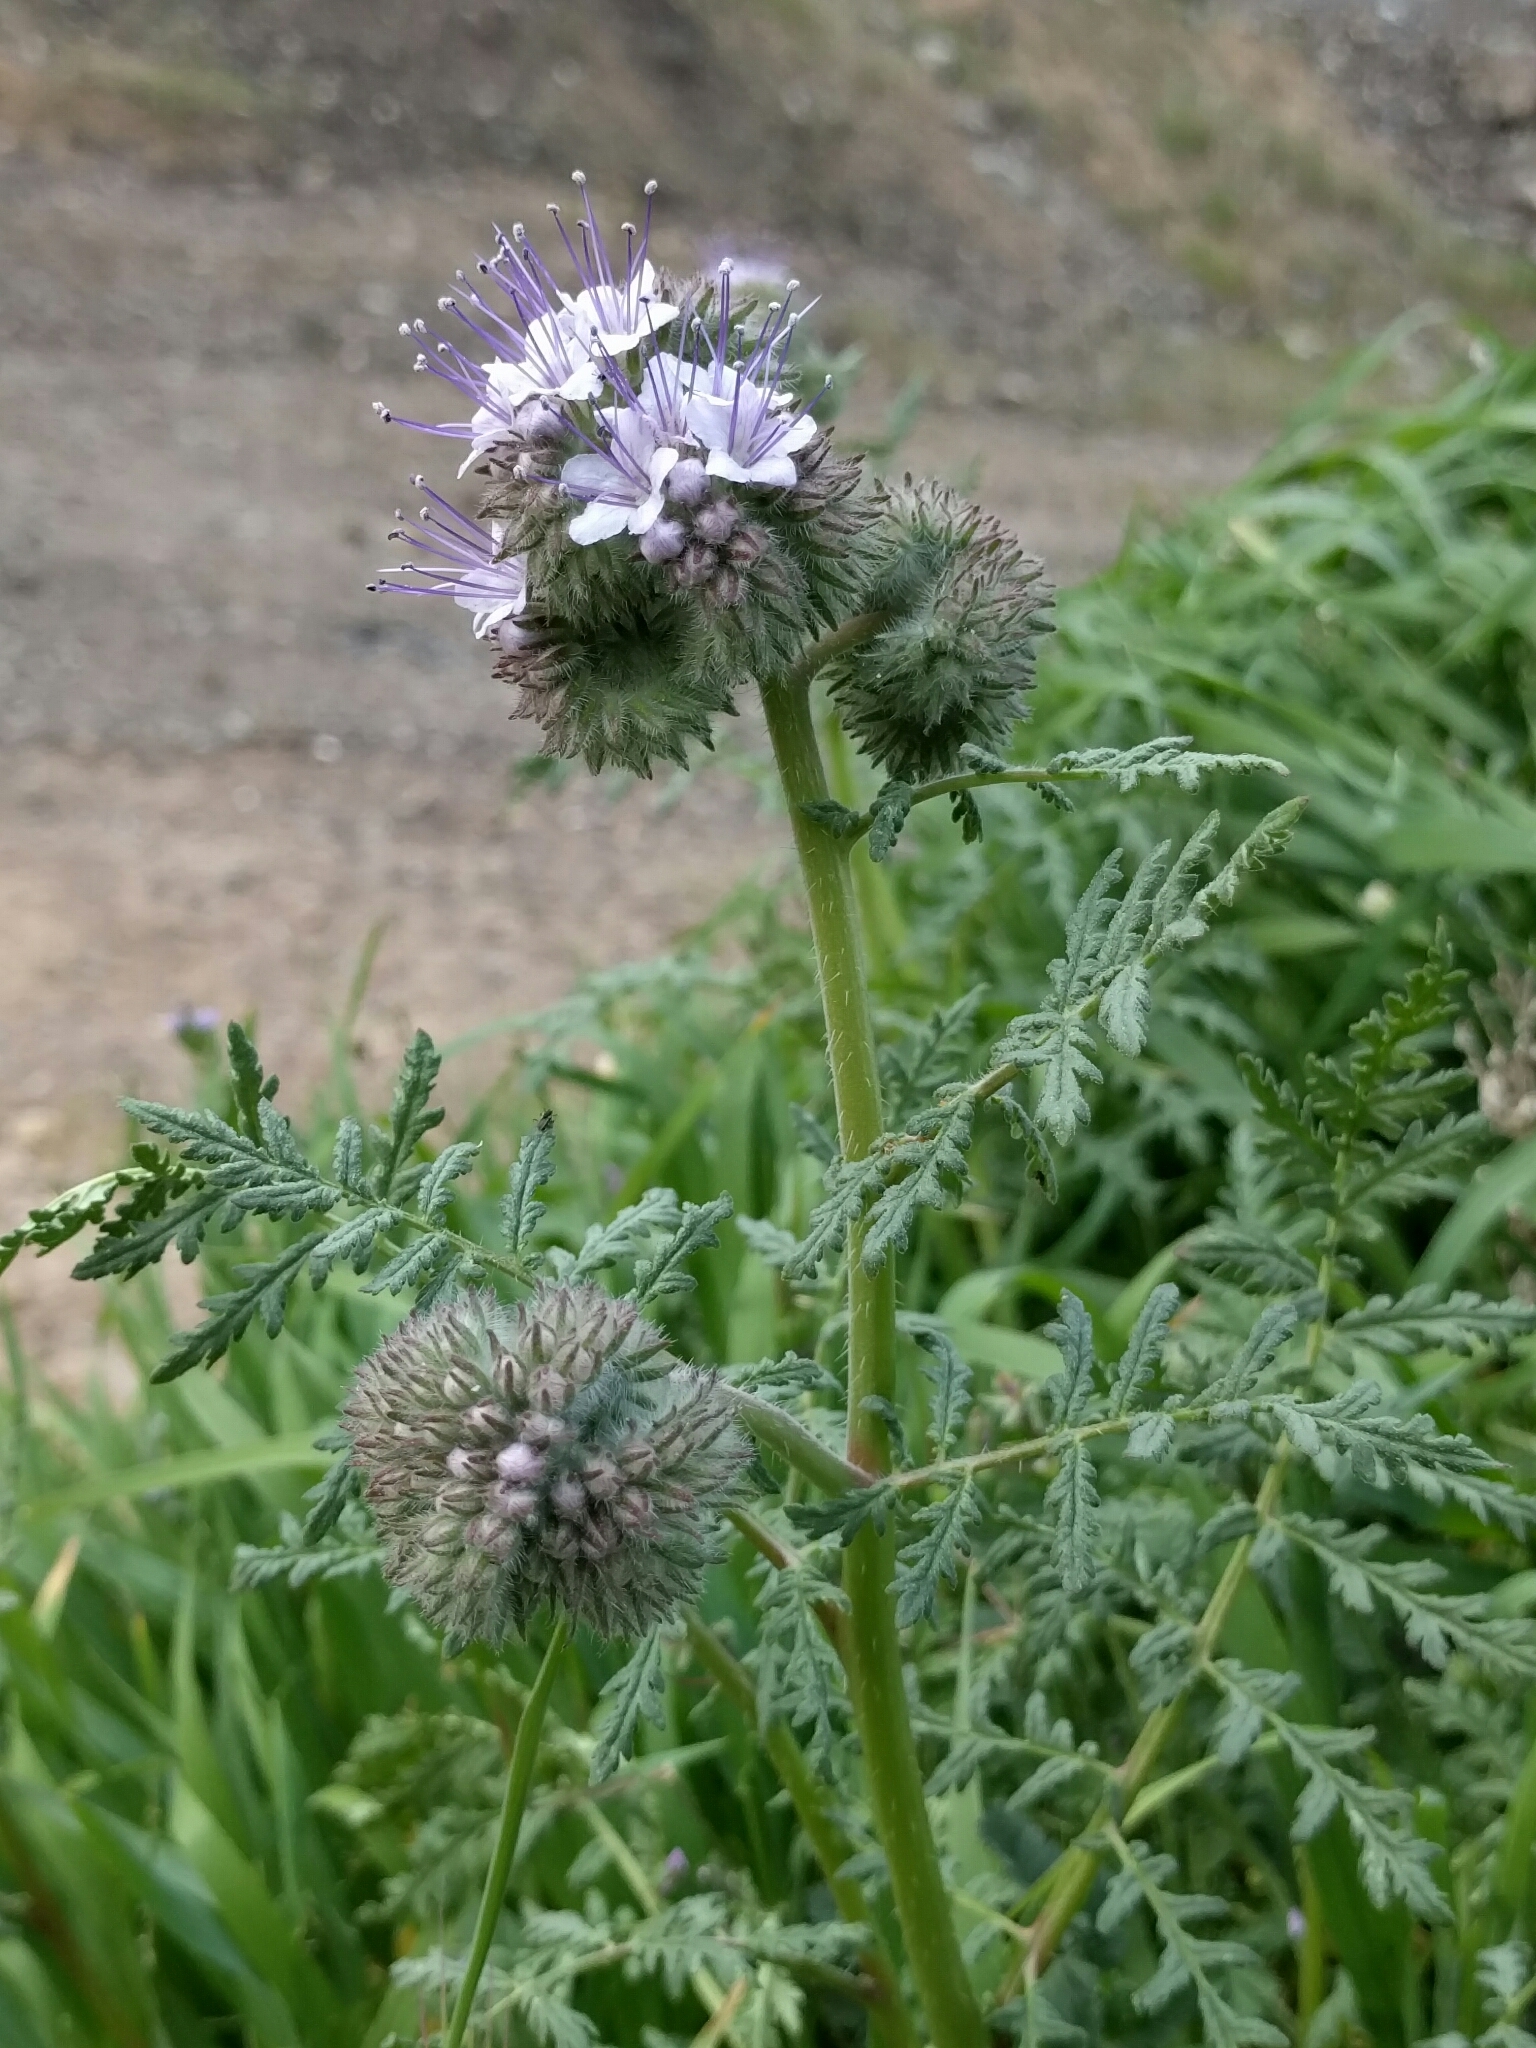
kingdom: Plantae
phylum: Tracheophyta
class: Magnoliopsida
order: Boraginales
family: Hydrophyllaceae
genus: Phacelia
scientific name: Phacelia tanacetifolia
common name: Phacelia
